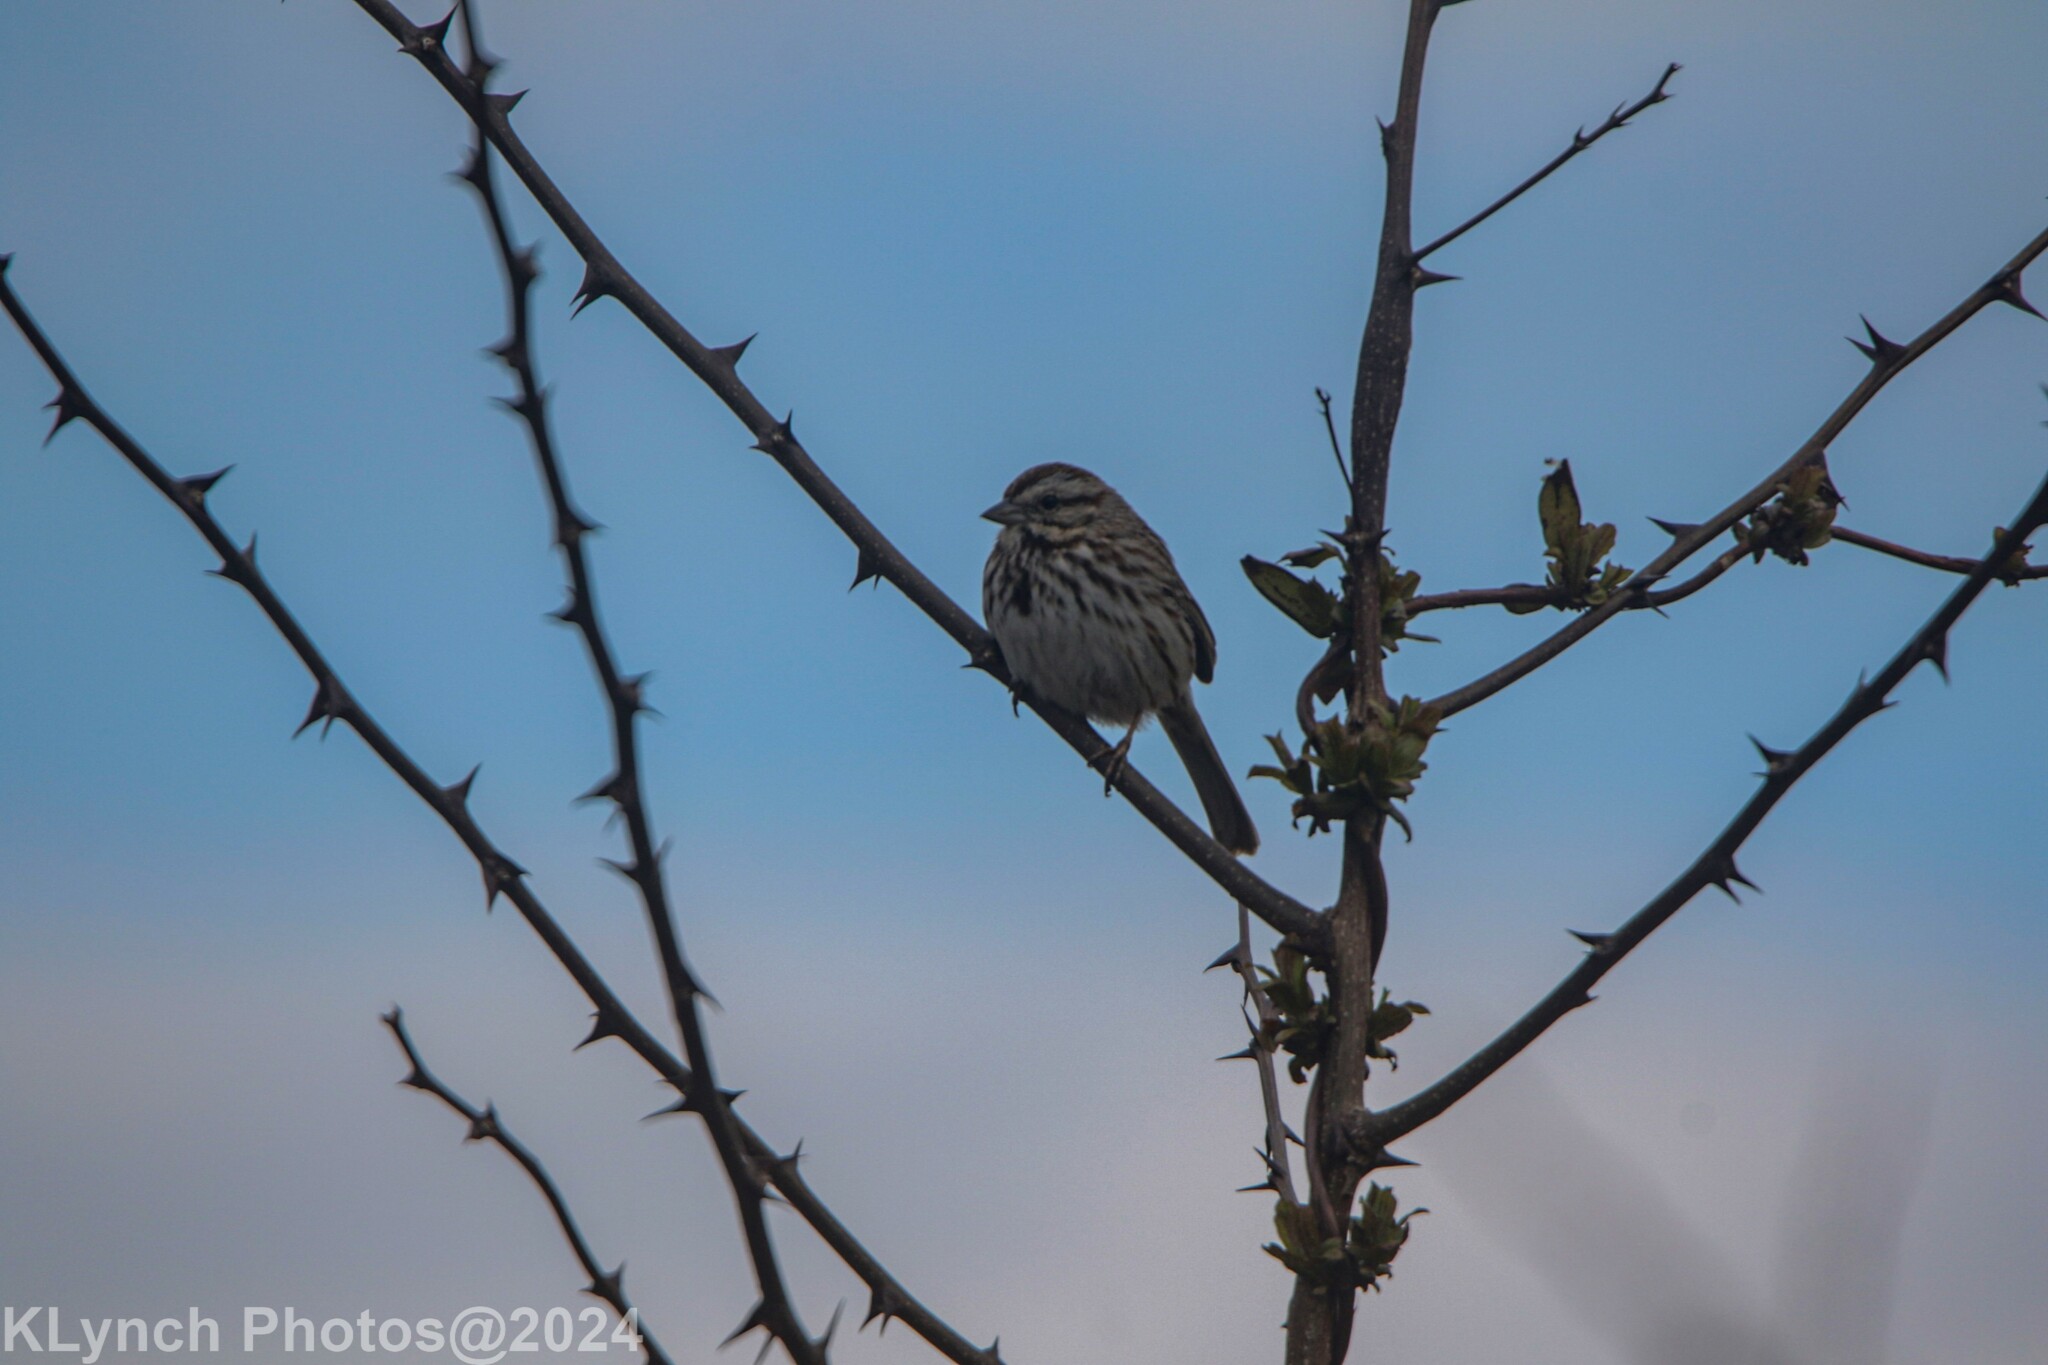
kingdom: Animalia
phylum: Chordata
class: Aves
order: Passeriformes
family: Passerellidae
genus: Melospiza
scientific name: Melospiza melodia
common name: Song sparrow
